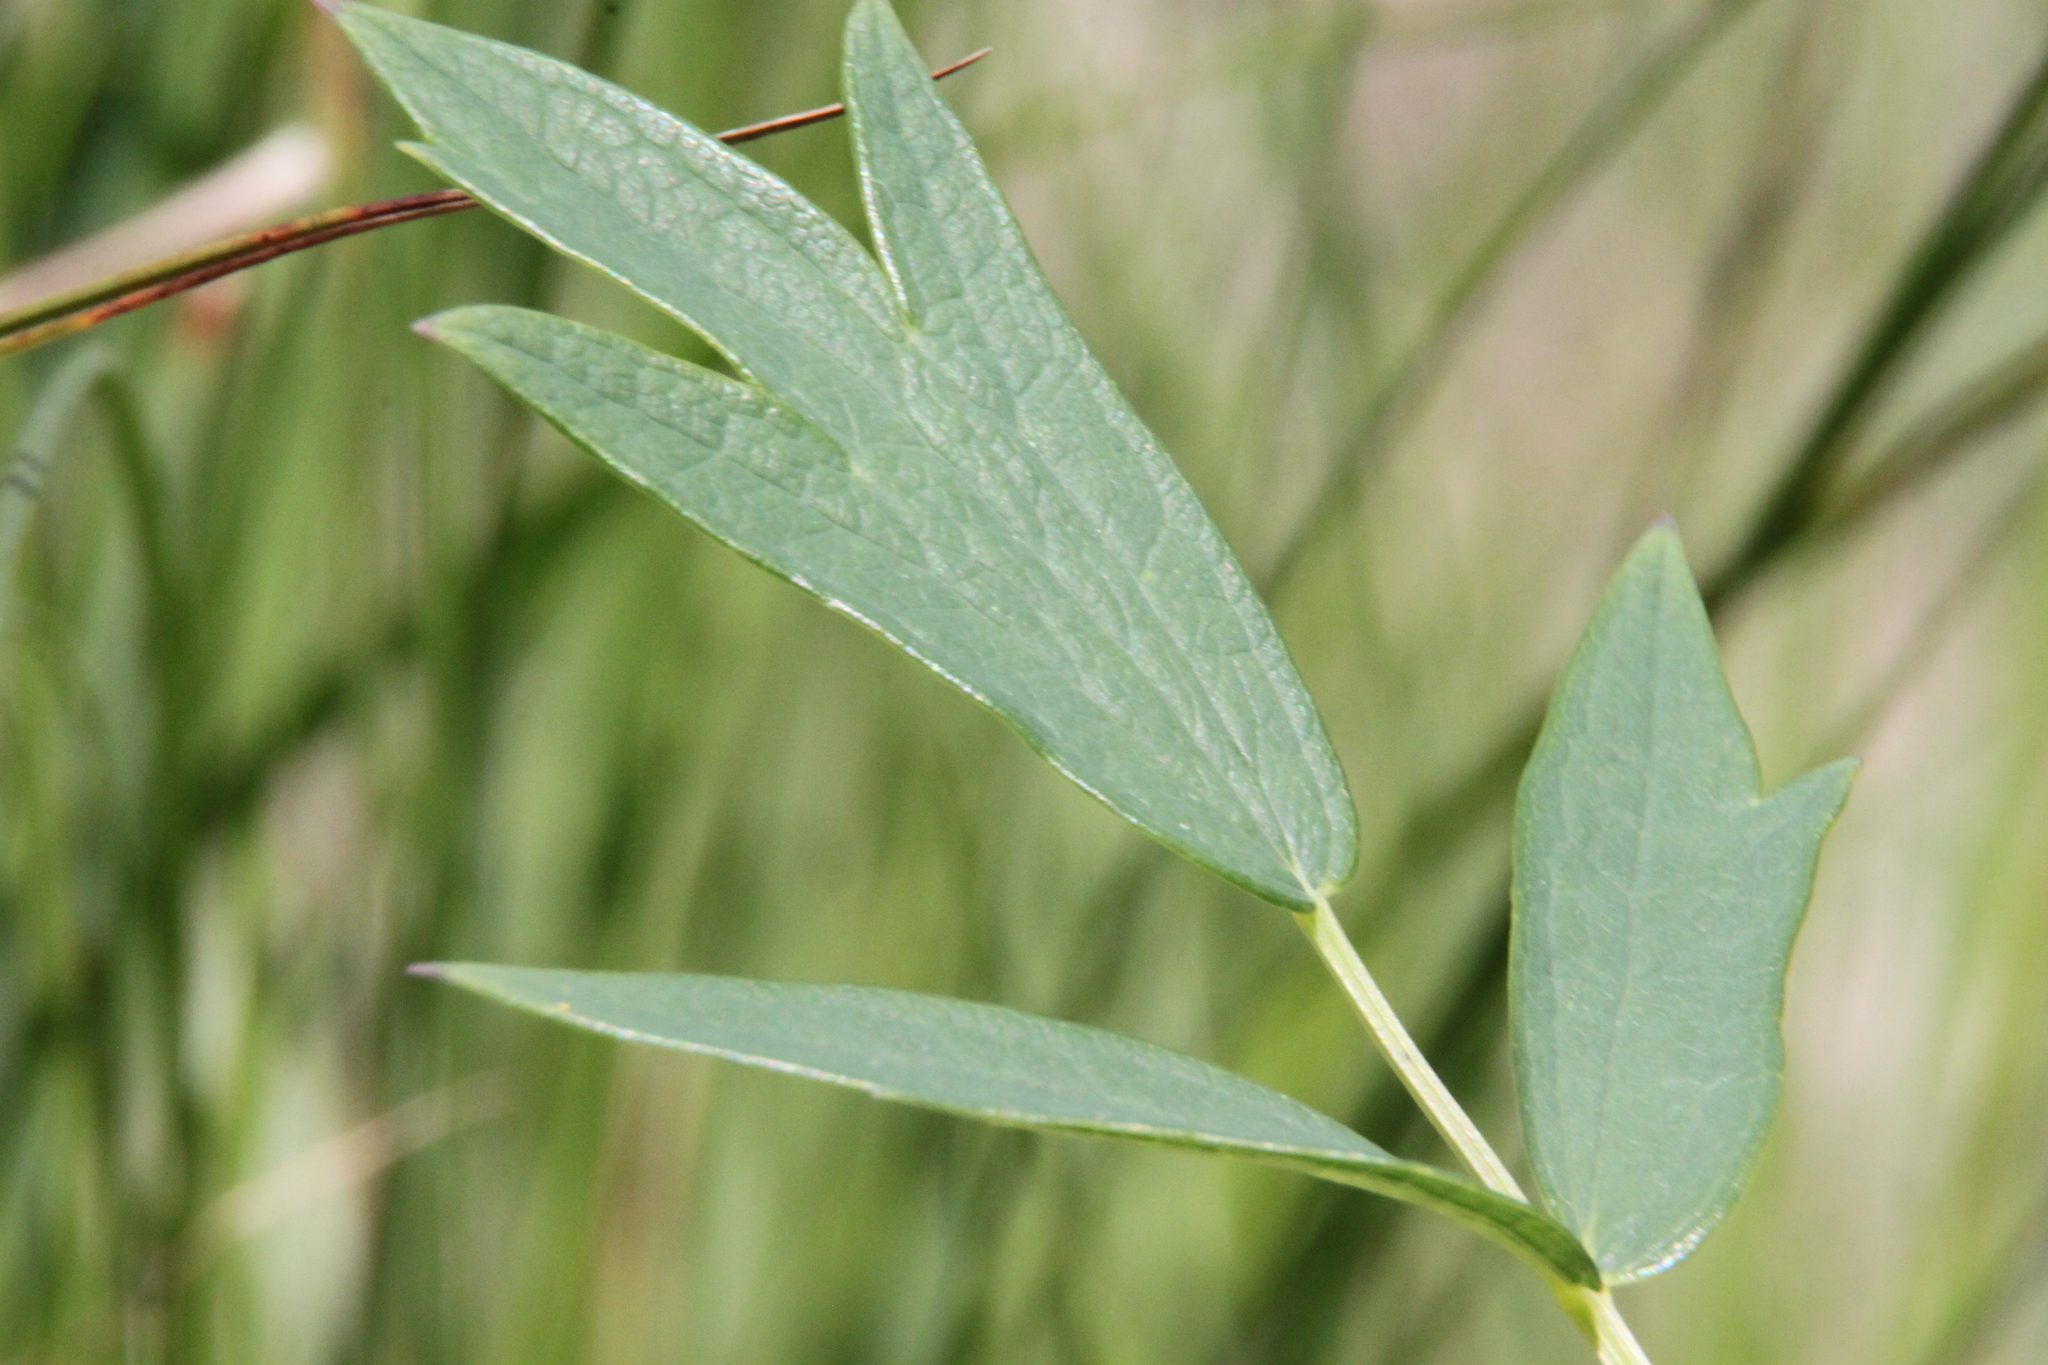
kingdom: Plantae
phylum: Tracheophyta
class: Magnoliopsida
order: Ranunculales
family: Ranunculaceae
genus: Thalictrum
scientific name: Thalictrum flavum
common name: Common meadow-rue
